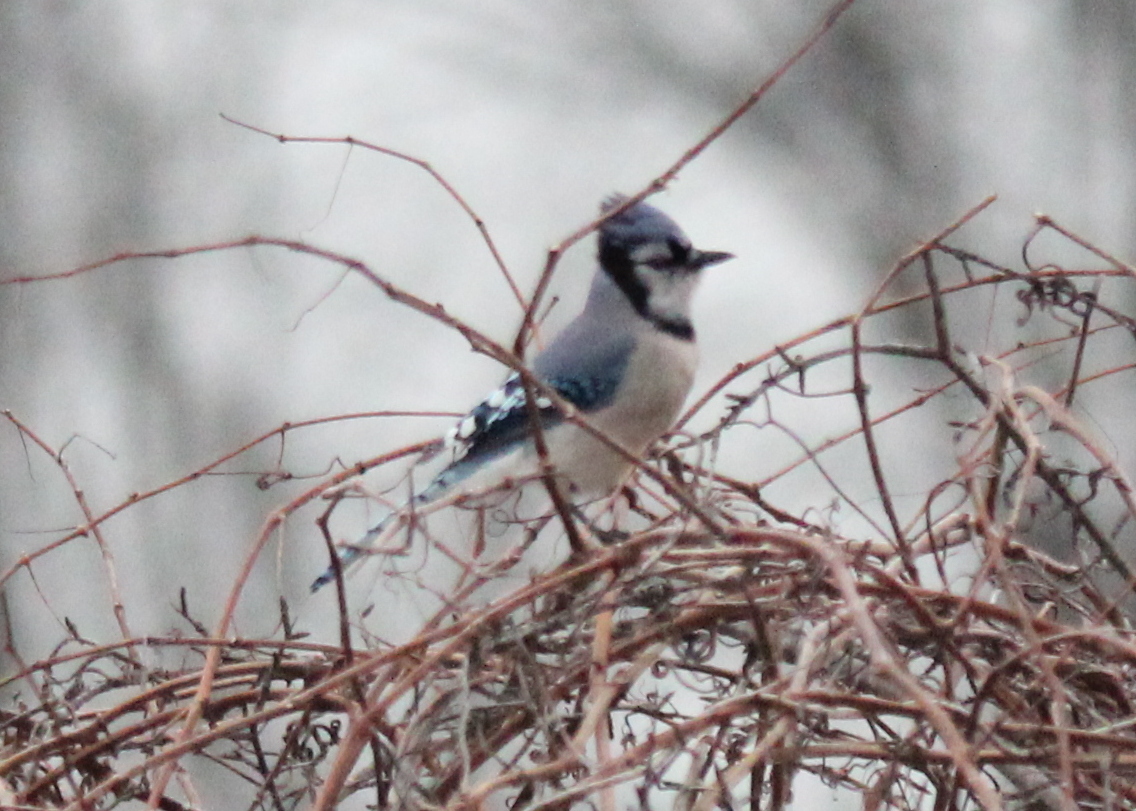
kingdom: Animalia
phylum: Chordata
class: Aves
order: Passeriformes
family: Corvidae
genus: Cyanocitta
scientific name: Cyanocitta cristata
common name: Blue jay
